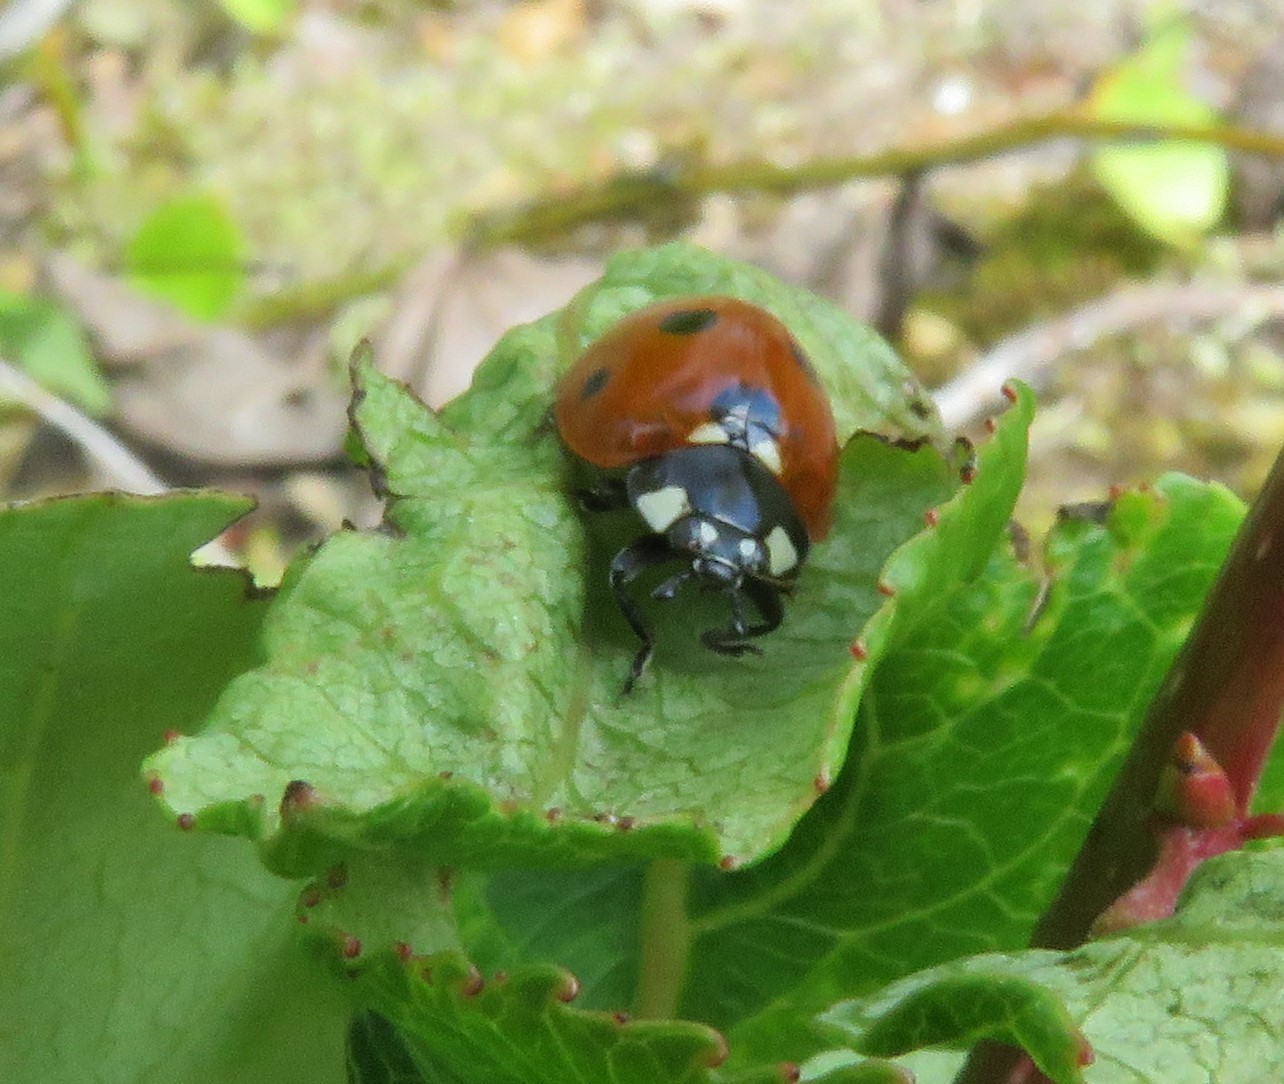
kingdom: Animalia
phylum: Arthropoda
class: Insecta
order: Coleoptera
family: Coccinellidae
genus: Coccinella
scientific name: Coccinella septempunctata
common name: Sevenspotted lady beetle
